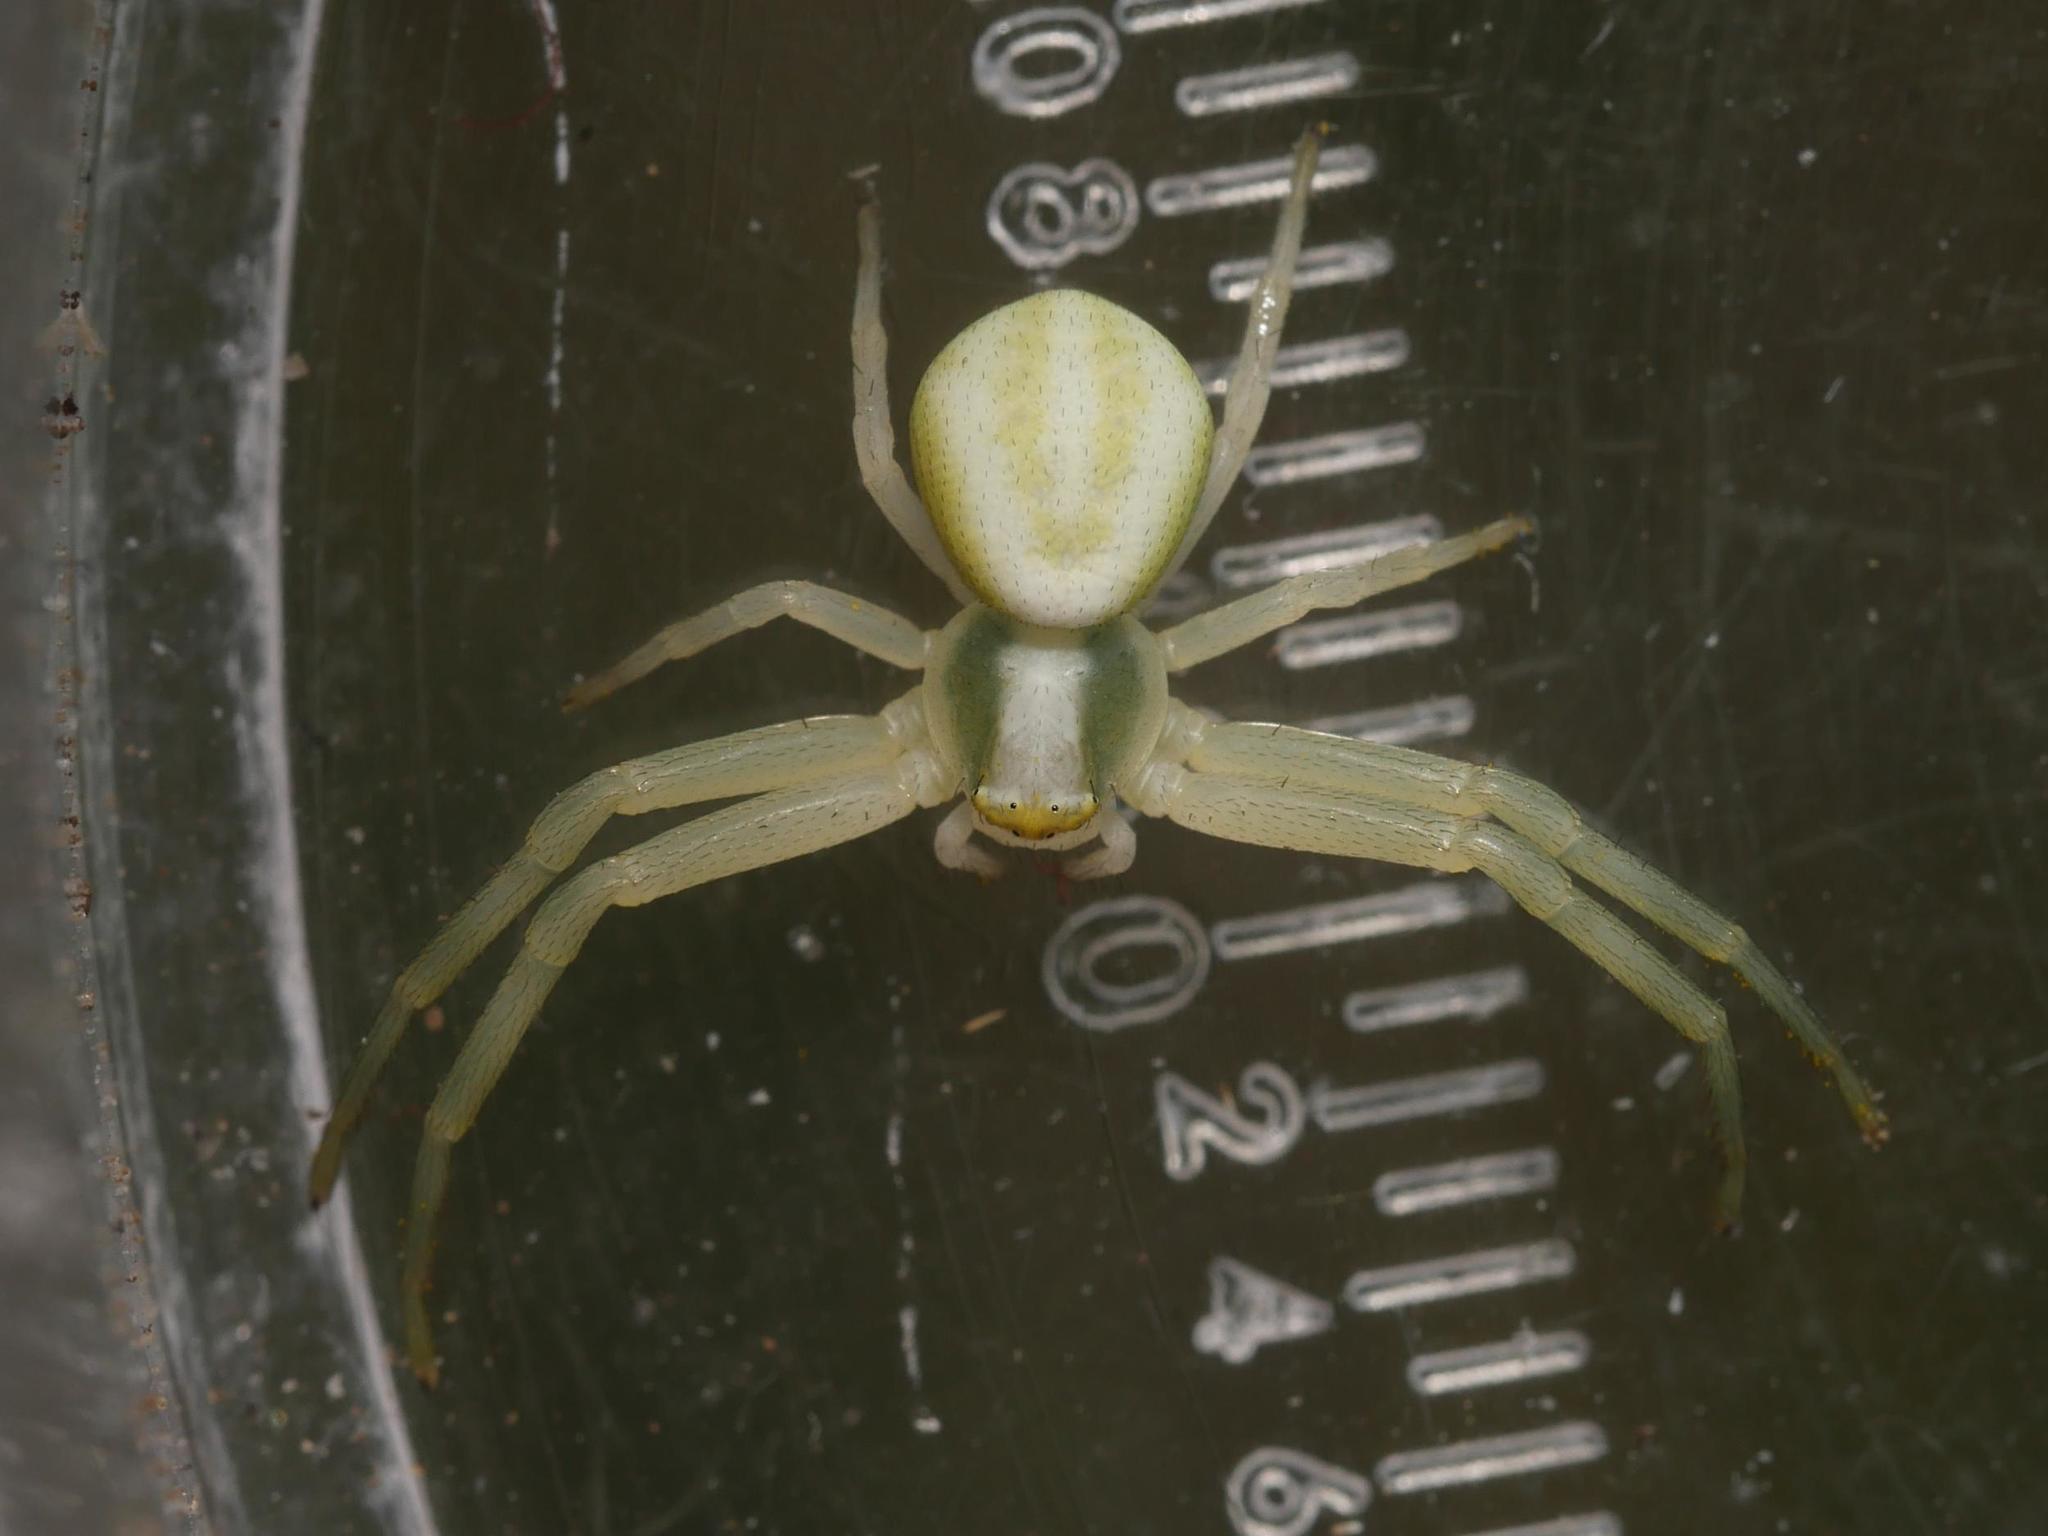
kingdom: Animalia
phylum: Arthropoda
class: Arachnida
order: Araneae
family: Thomisidae
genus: Misumena
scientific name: Misumena vatia
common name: Goldenrod crab spider
